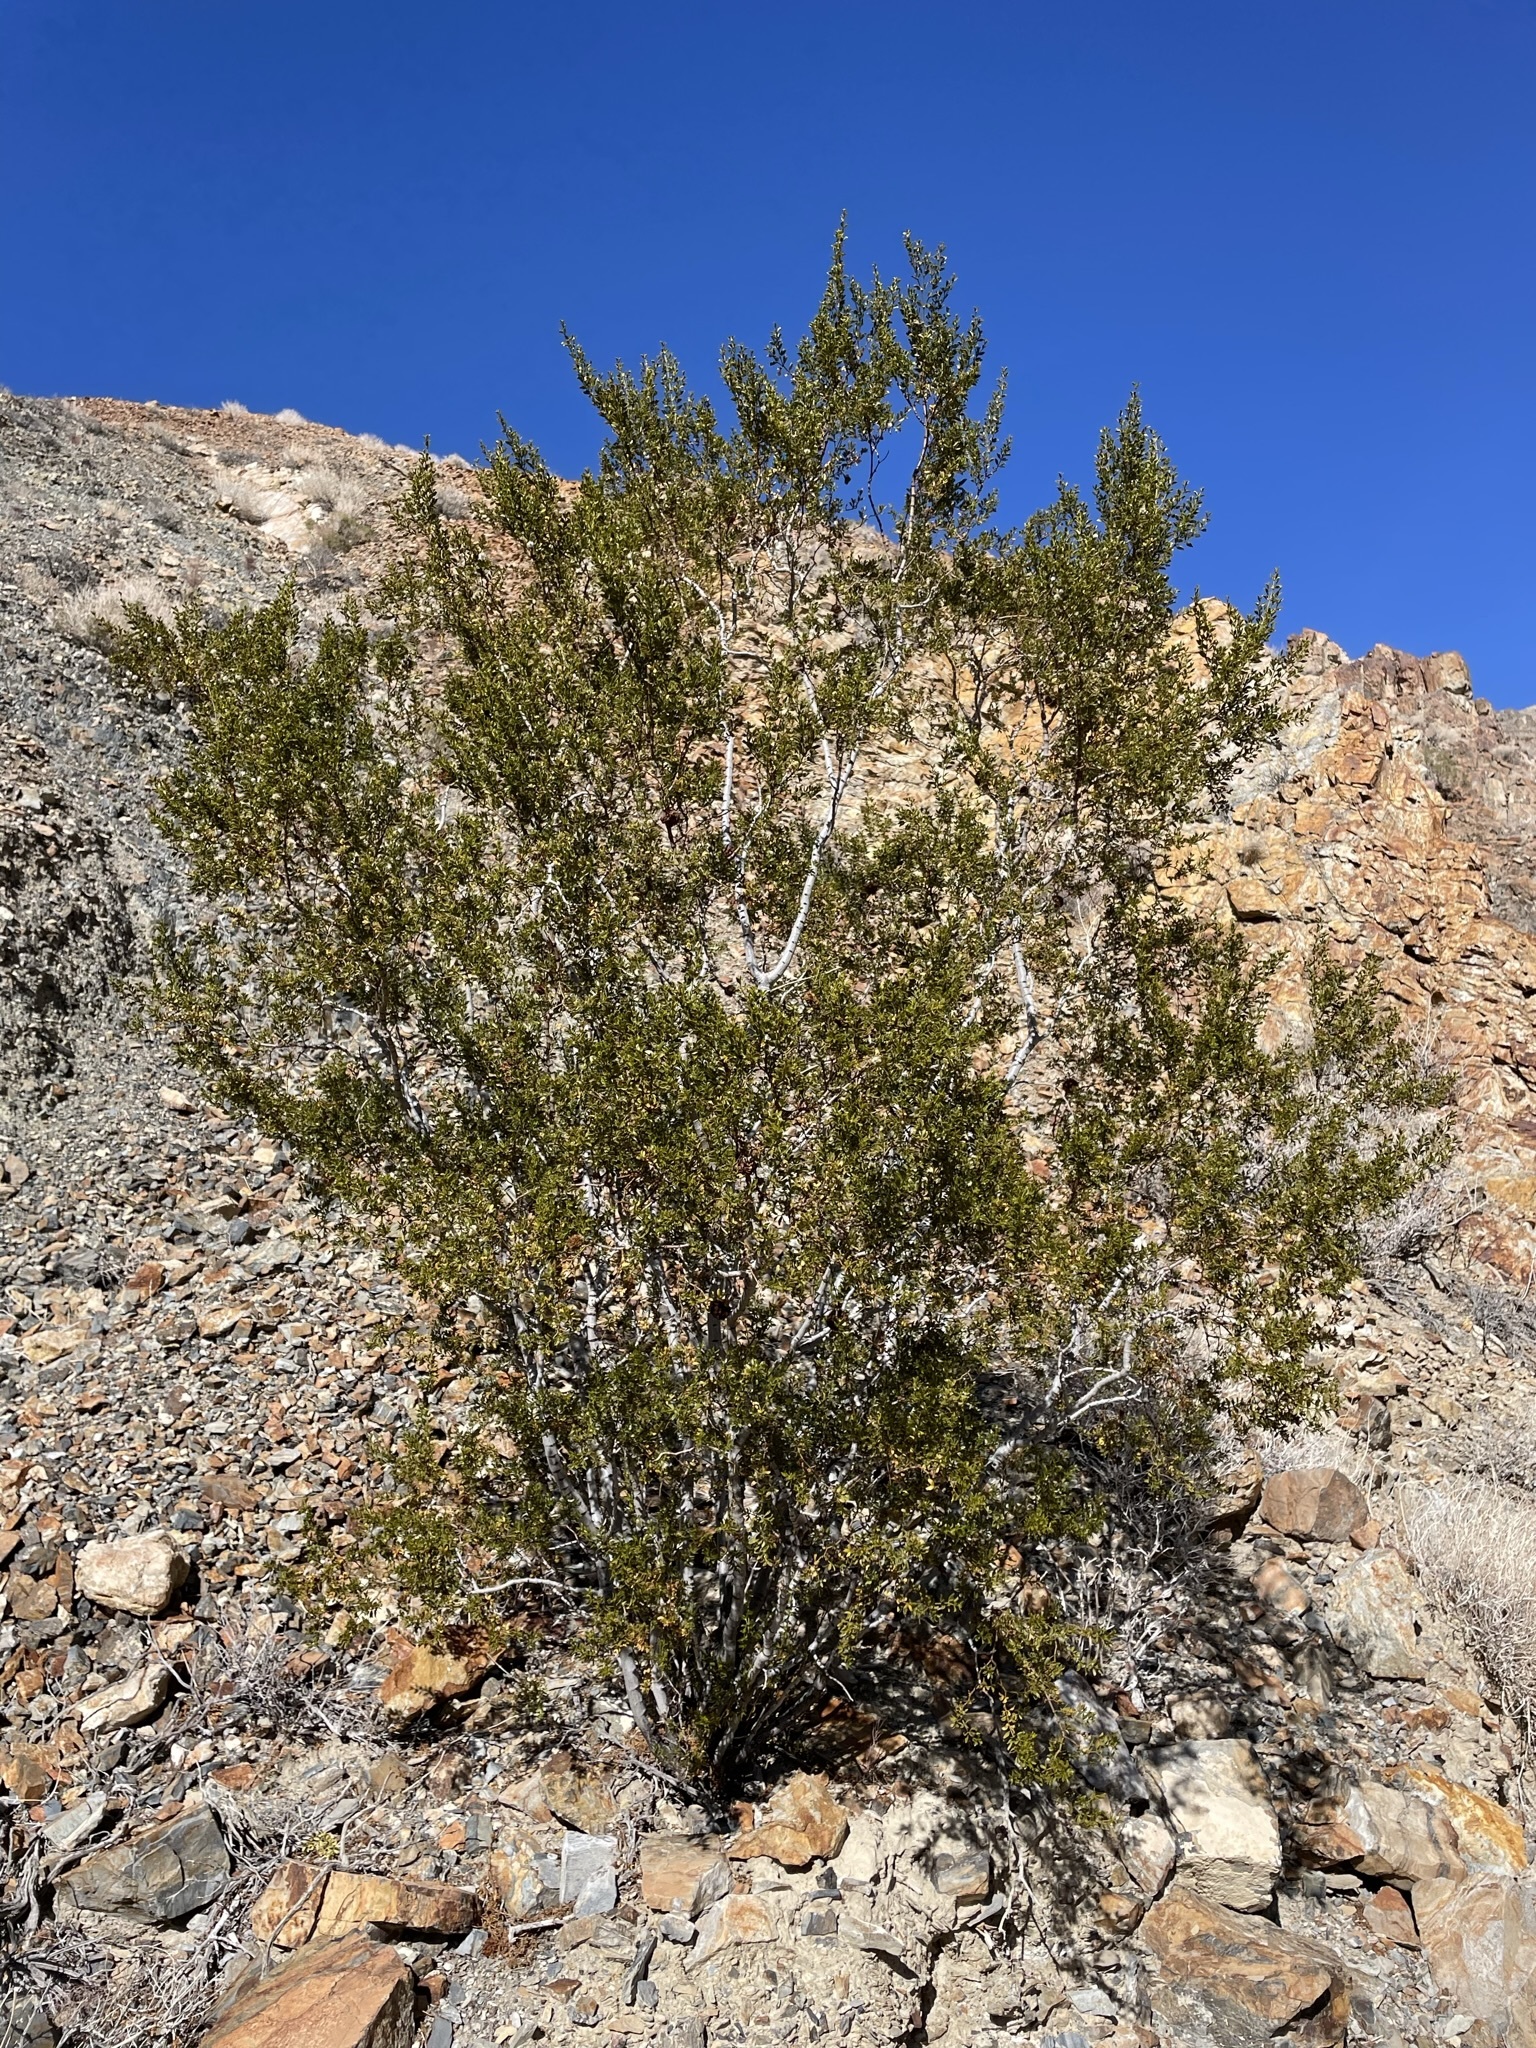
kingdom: Plantae
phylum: Tracheophyta
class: Magnoliopsida
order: Zygophyllales
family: Zygophyllaceae
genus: Larrea
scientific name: Larrea tridentata
